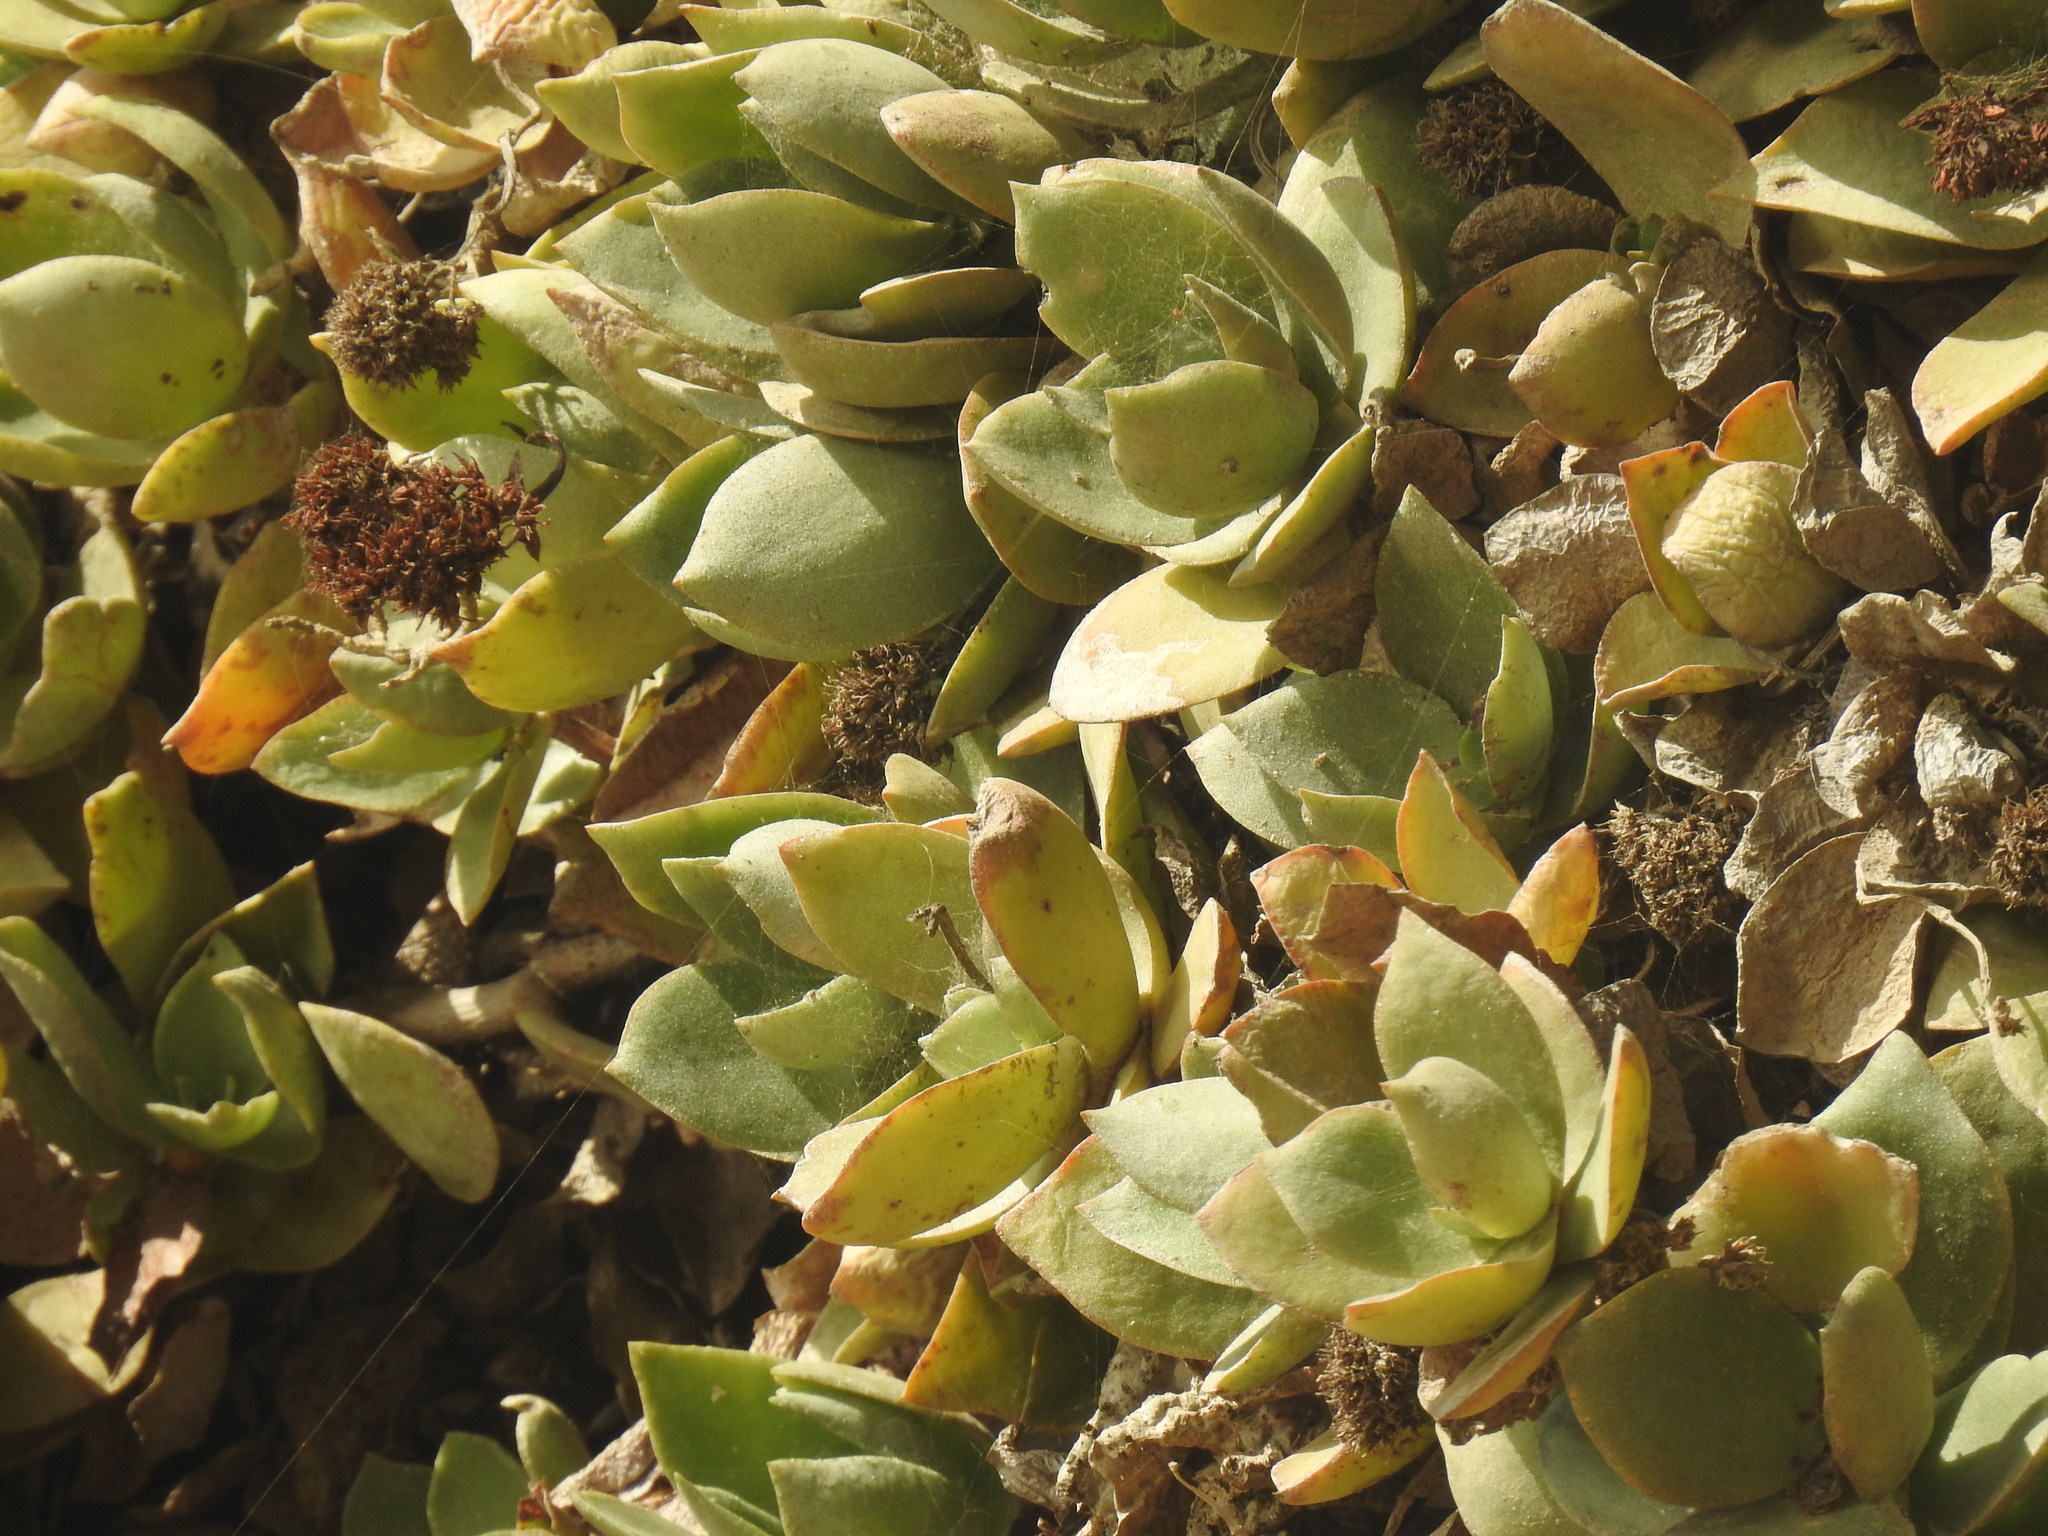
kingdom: Plantae
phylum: Tracheophyta
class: Magnoliopsida
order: Saxifragales
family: Crassulaceae
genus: Crassula
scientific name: Crassula lactea
